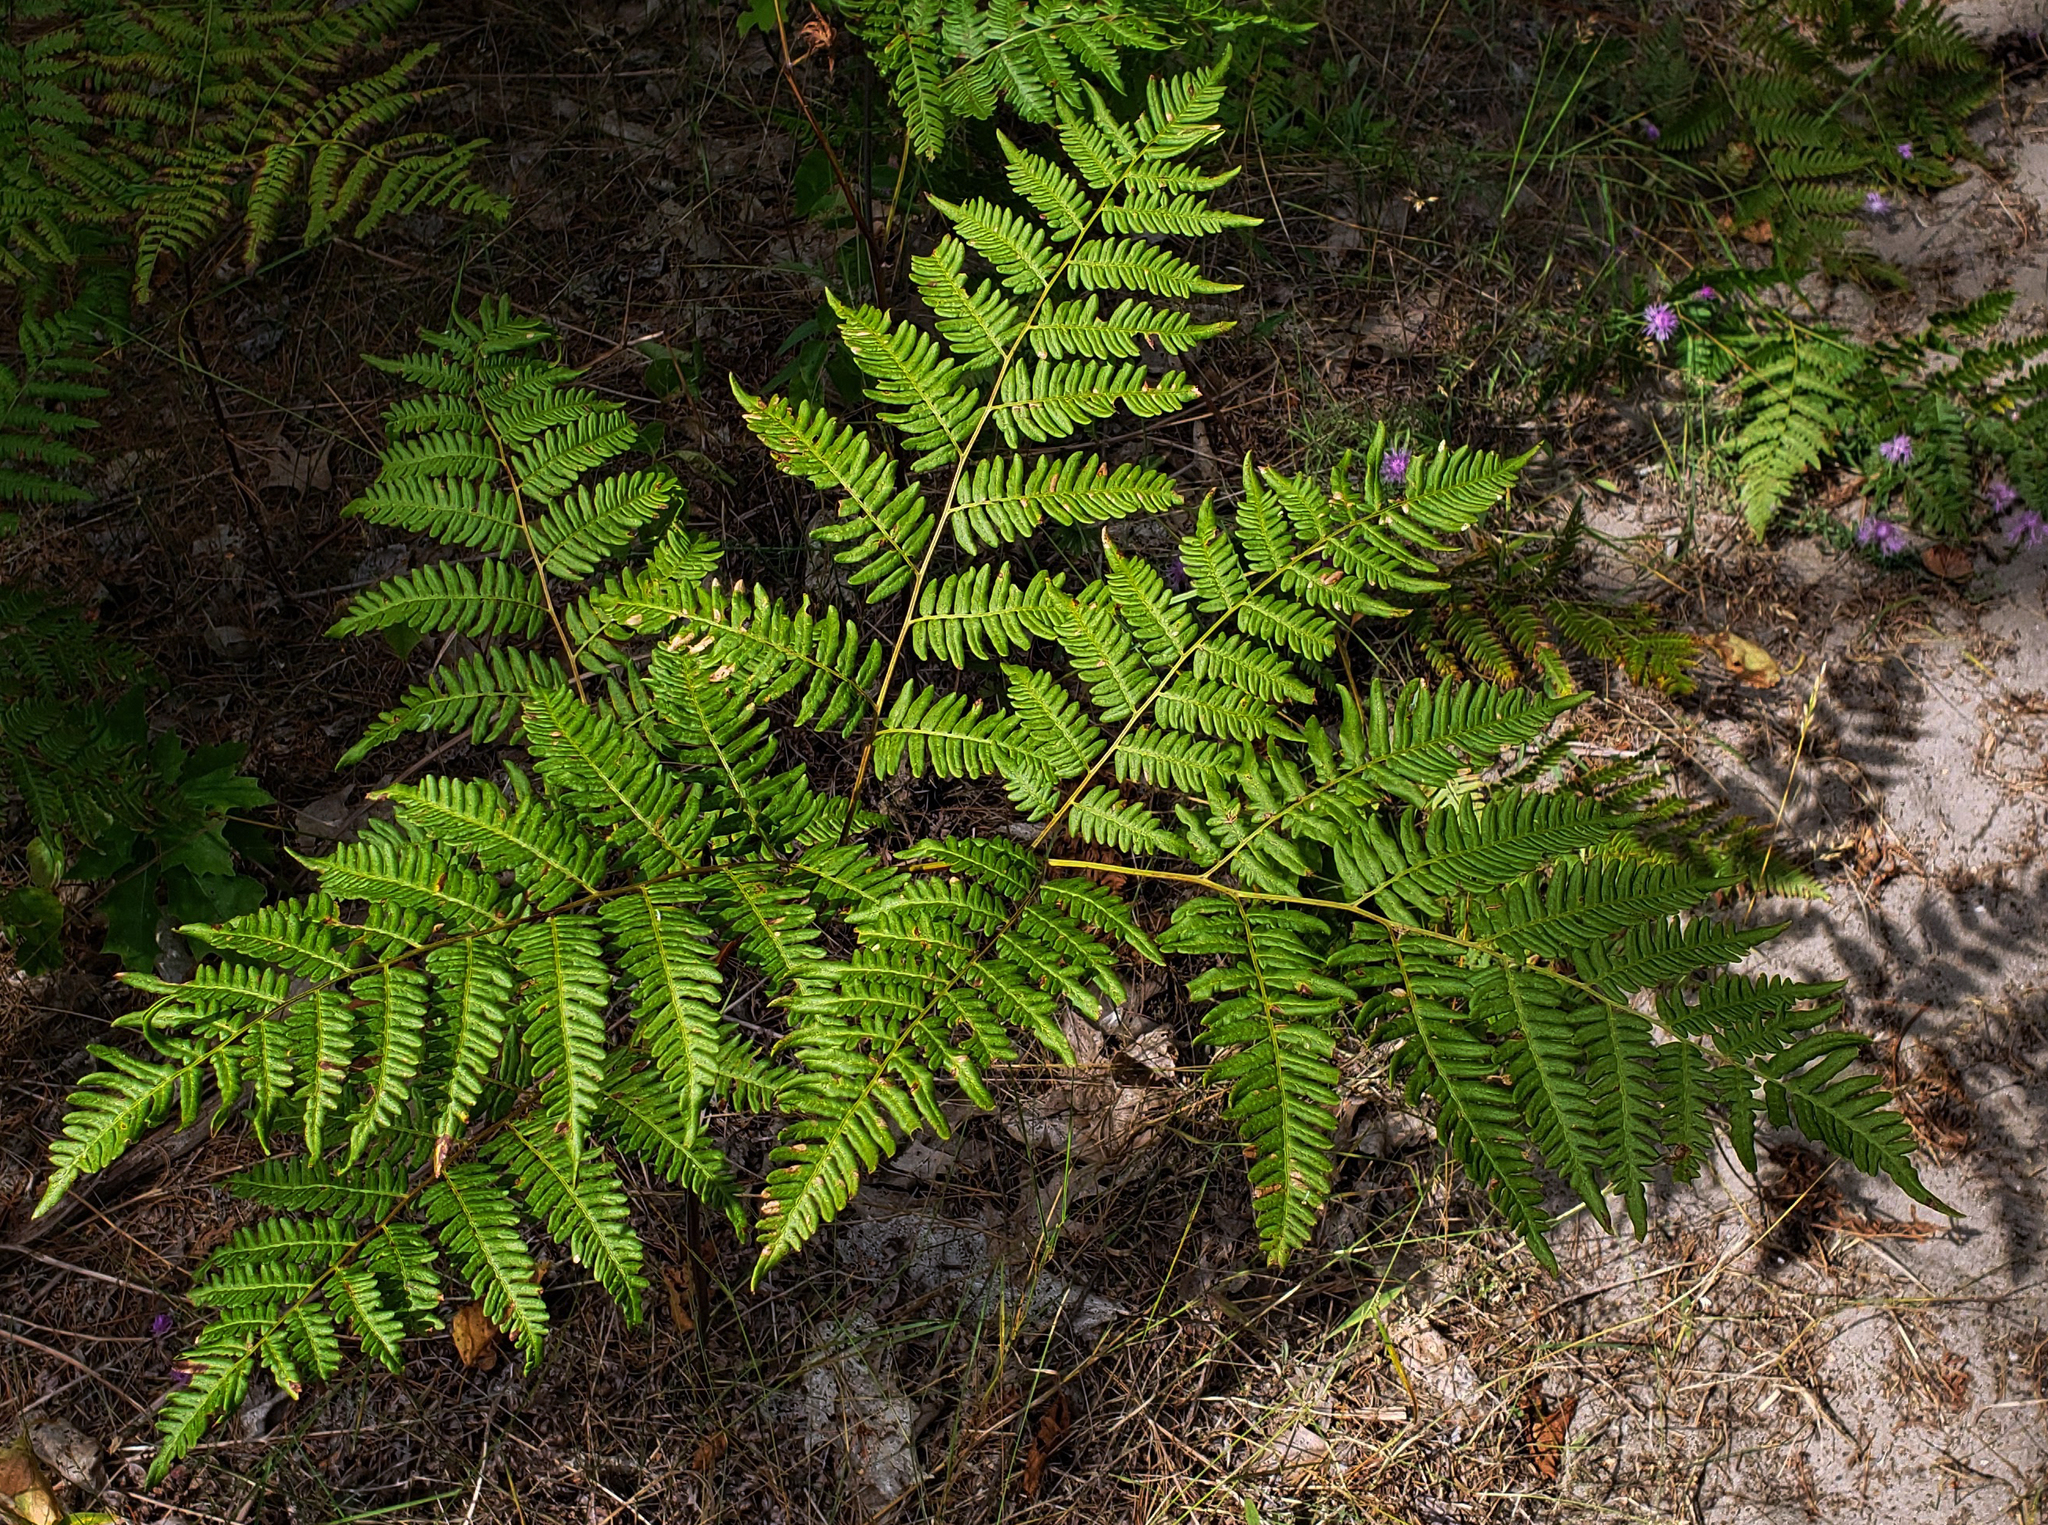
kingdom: Plantae
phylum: Tracheophyta
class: Polypodiopsida
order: Polypodiales
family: Dennstaedtiaceae
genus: Pteridium
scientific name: Pteridium aquilinum
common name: Bracken
